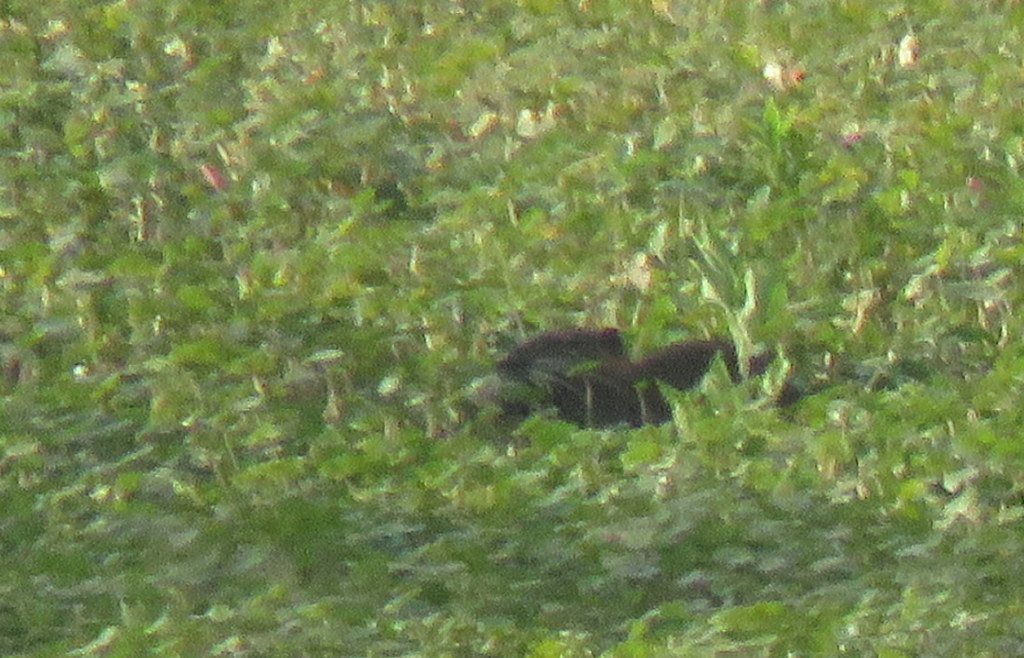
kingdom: Animalia
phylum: Chordata
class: Mammalia
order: Rodentia
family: Myocastoridae
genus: Myocastor
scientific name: Myocastor coypus
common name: Coypu
